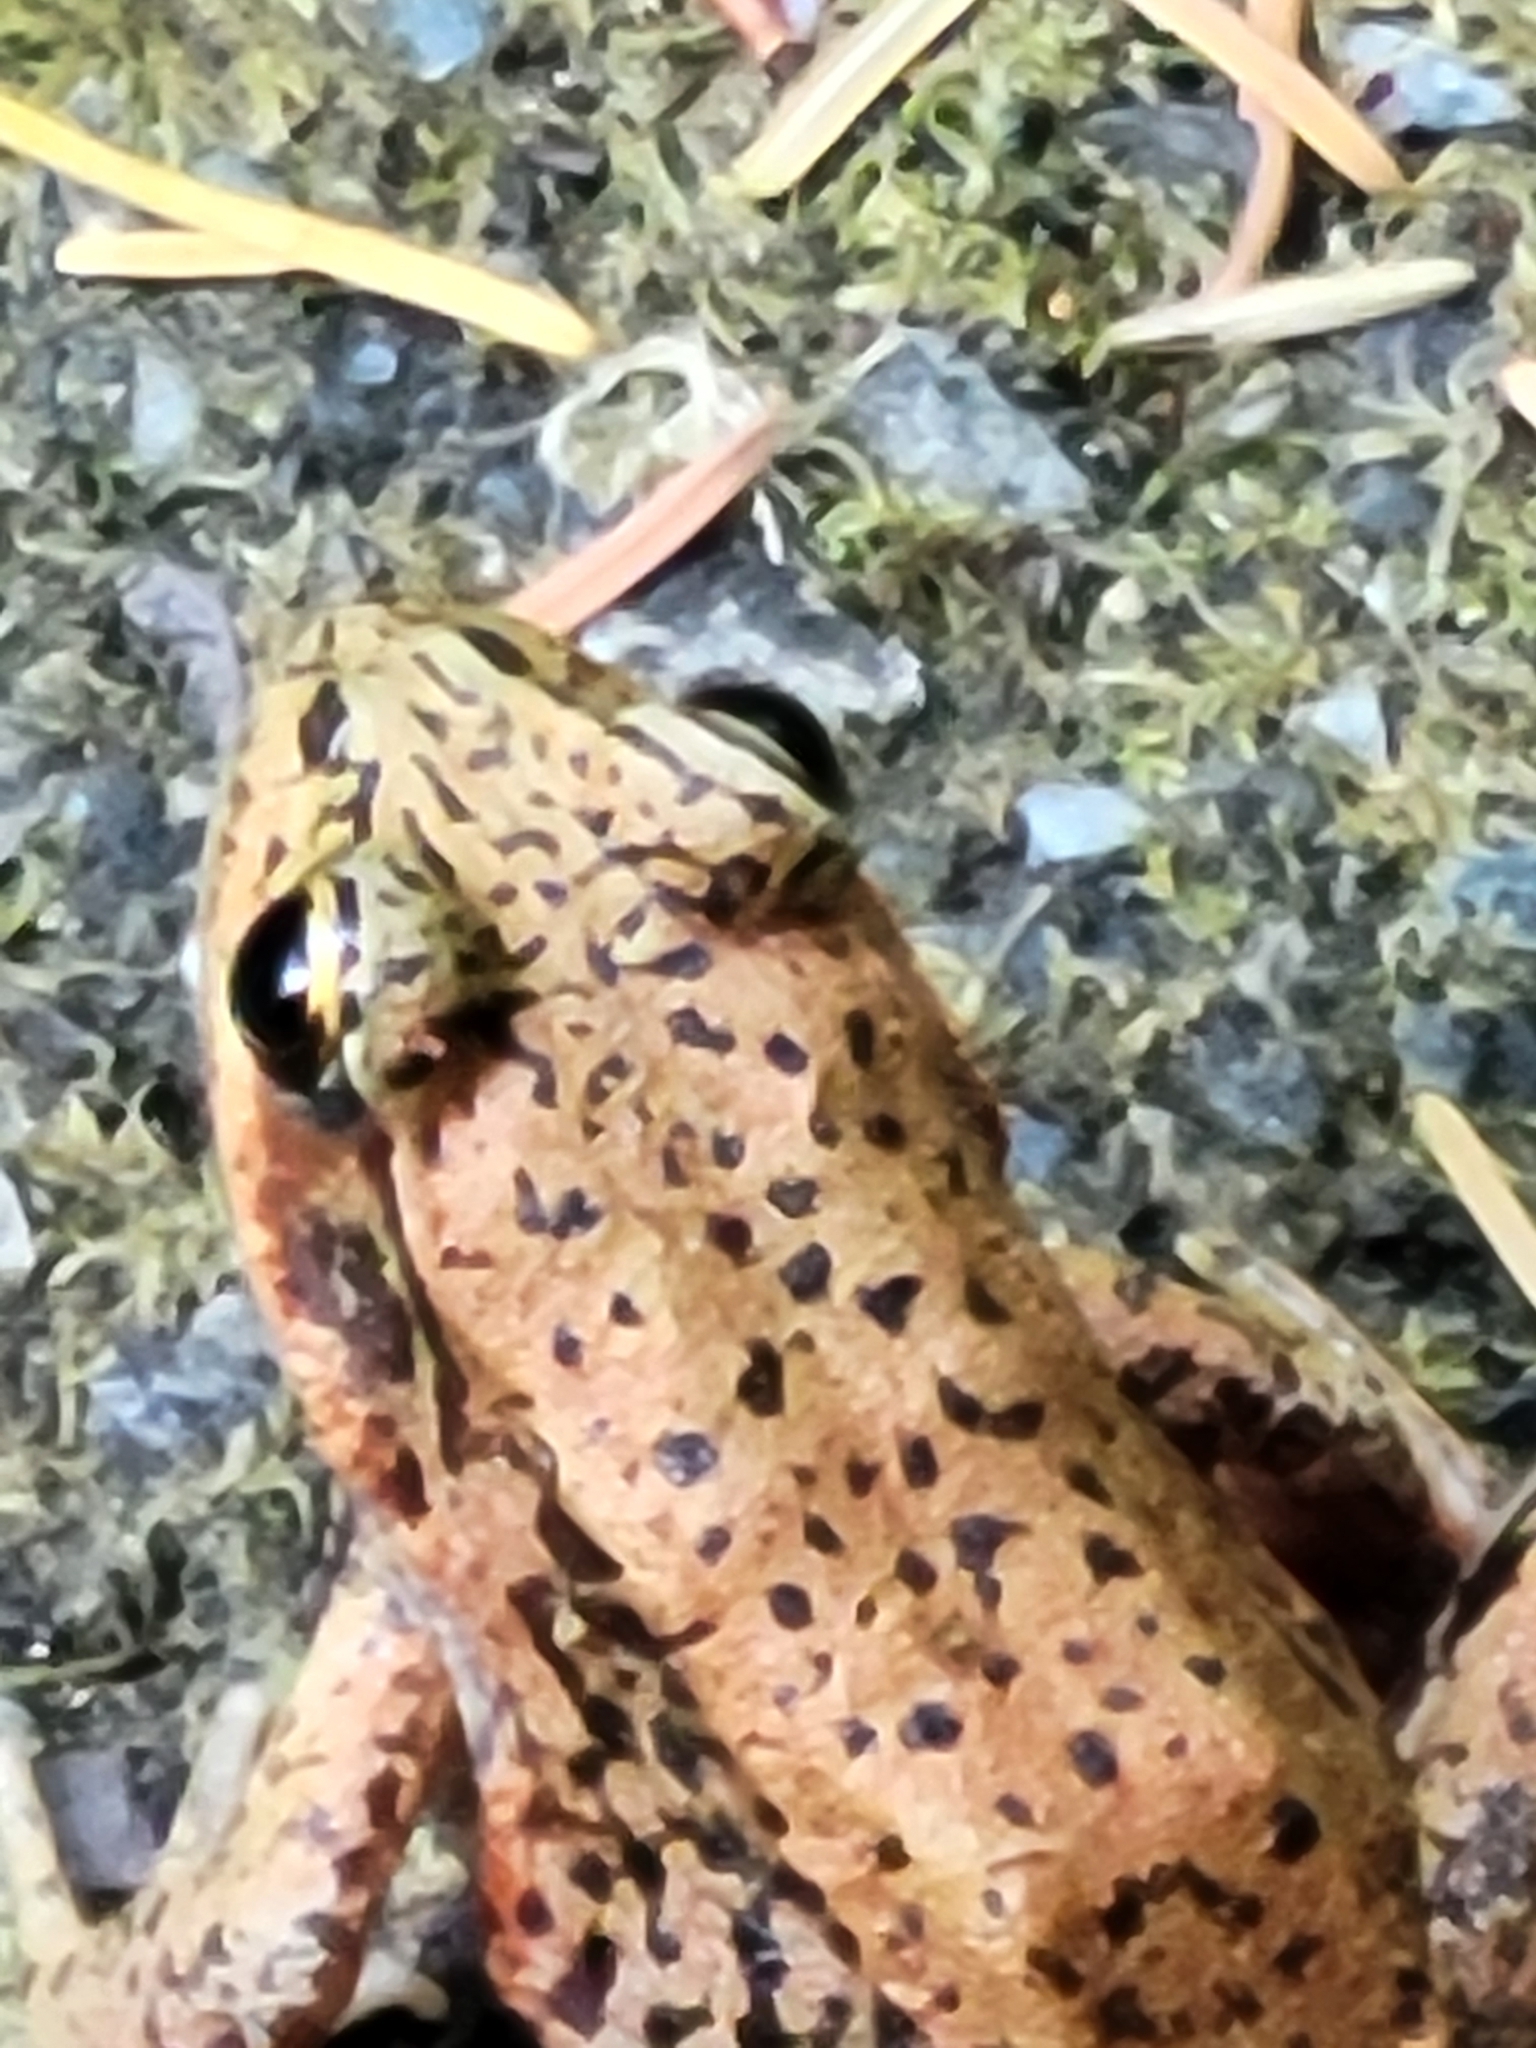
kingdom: Animalia
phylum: Chordata
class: Amphibia
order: Anura
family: Ranidae
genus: Rana
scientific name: Rana aurora
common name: Red-legged frog
